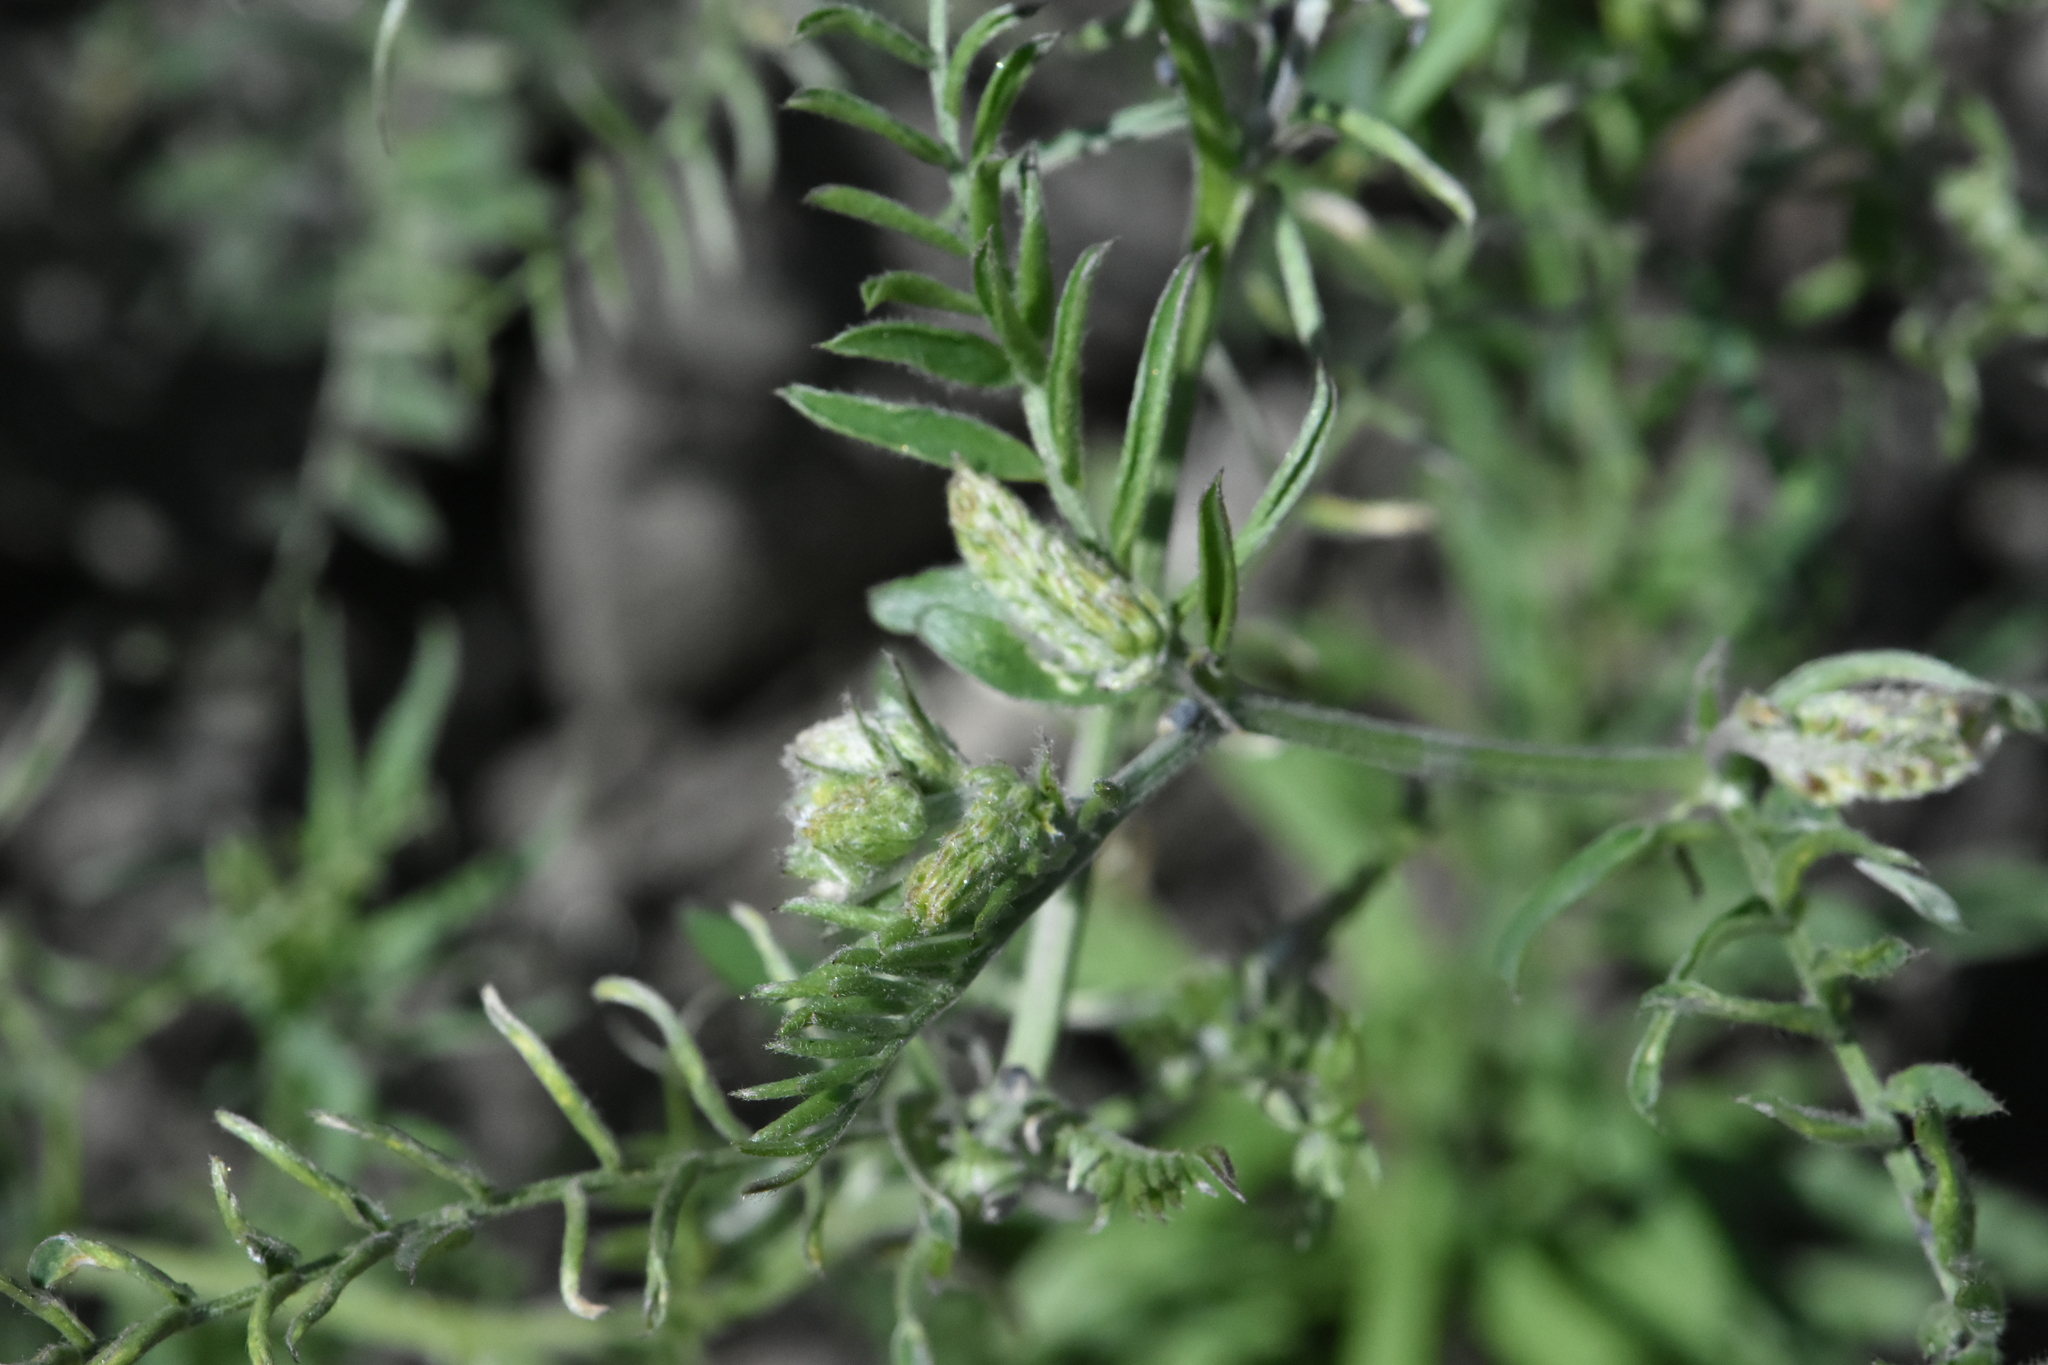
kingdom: Plantae
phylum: Tracheophyta
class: Magnoliopsida
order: Fabales
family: Fabaceae
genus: Vicia
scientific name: Vicia cracca
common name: Bird vetch
